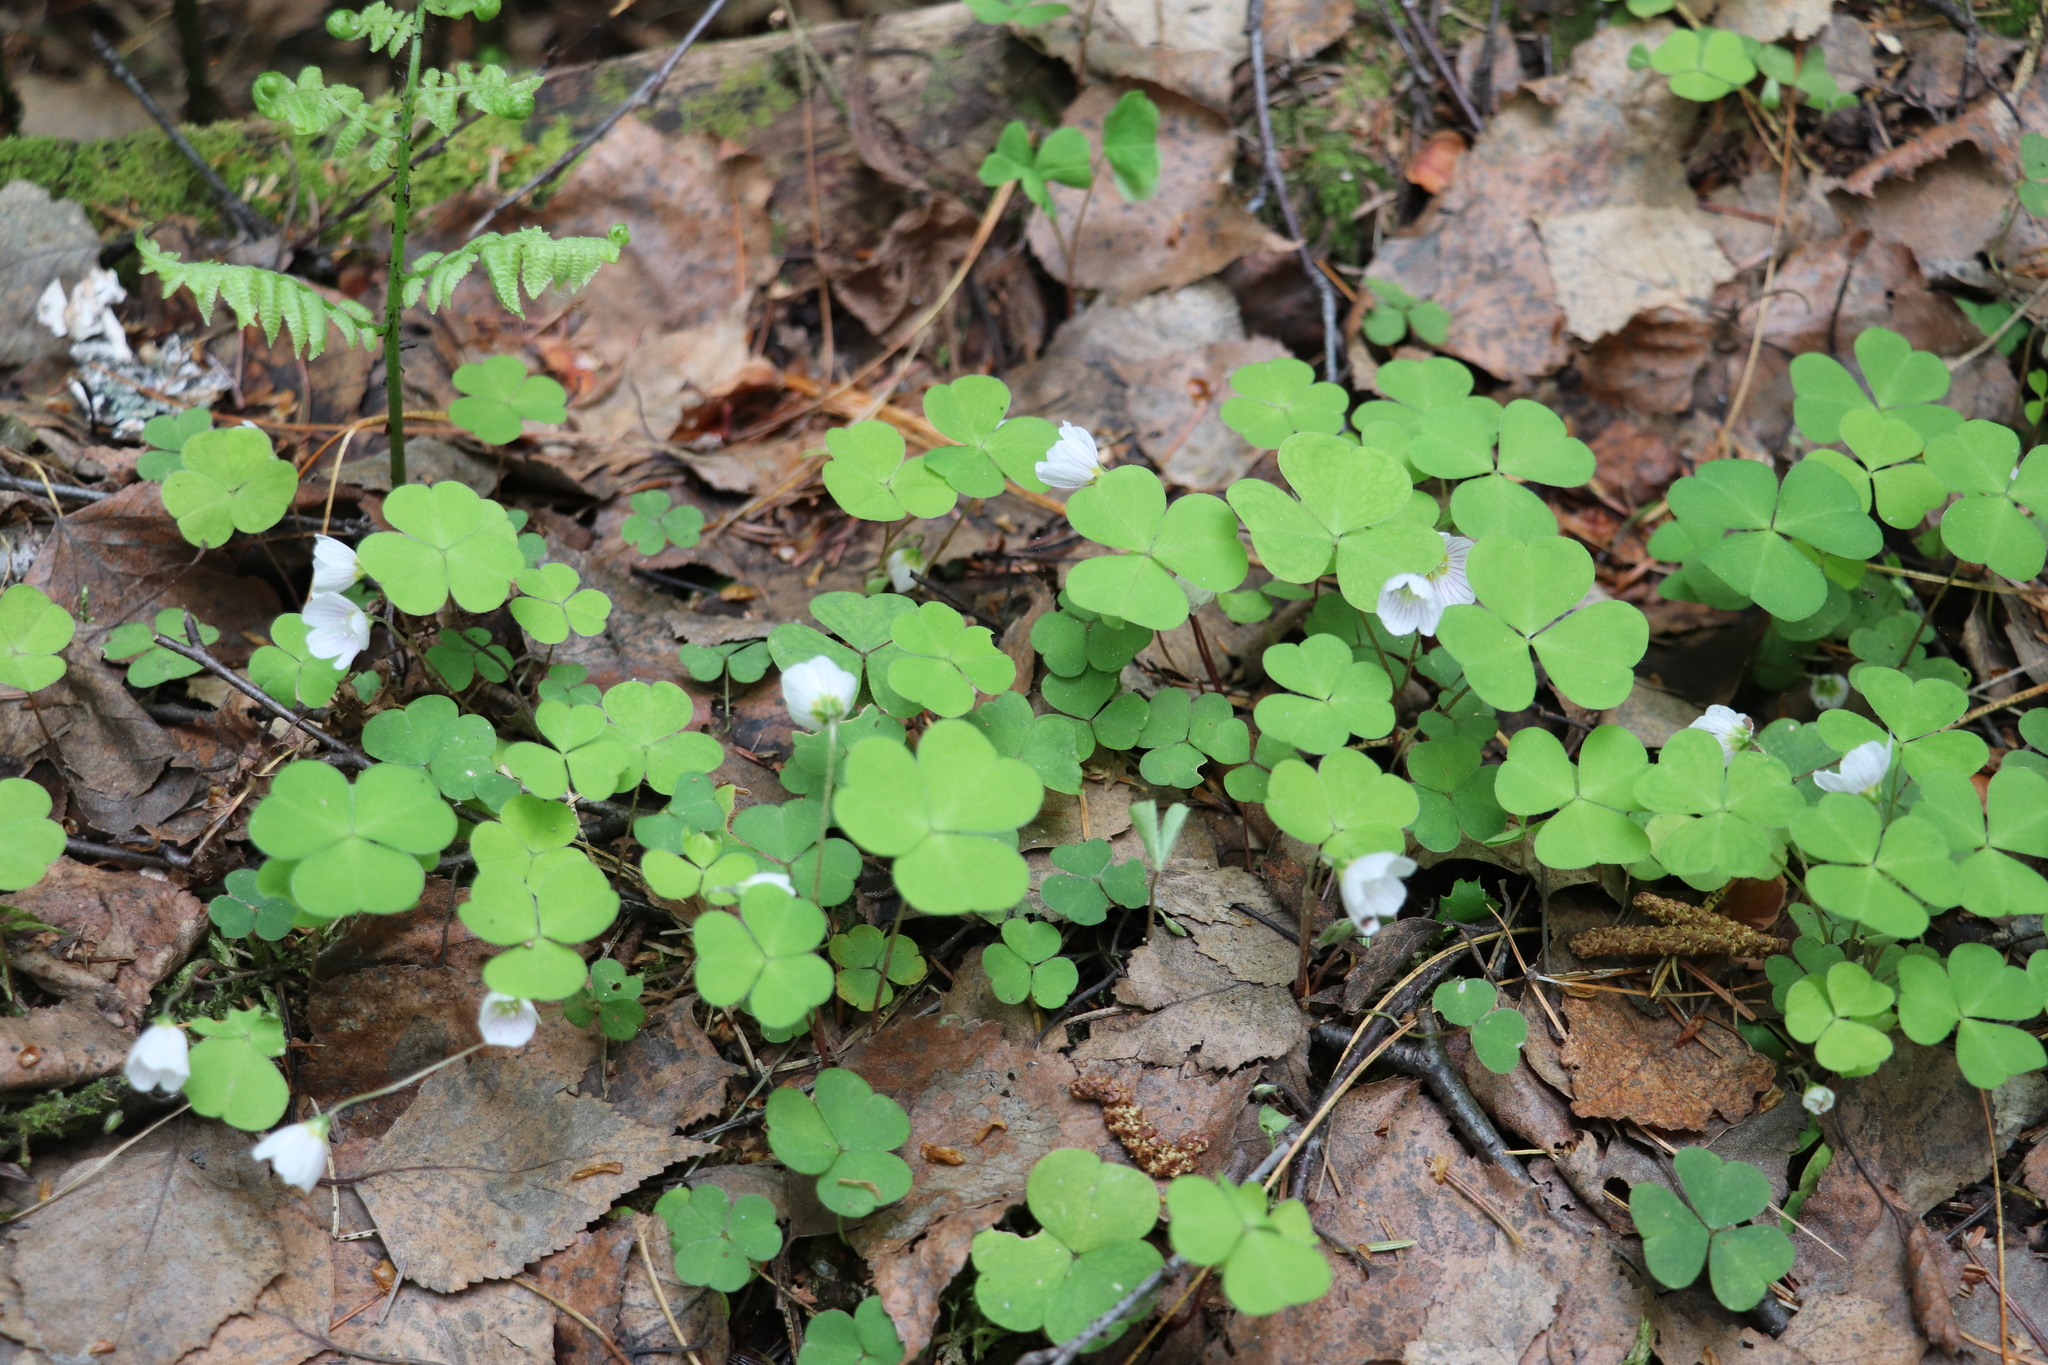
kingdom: Plantae
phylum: Tracheophyta
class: Magnoliopsida
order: Oxalidales
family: Oxalidaceae
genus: Oxalis
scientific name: Oxalis acetosella
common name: Wood-sorrel
